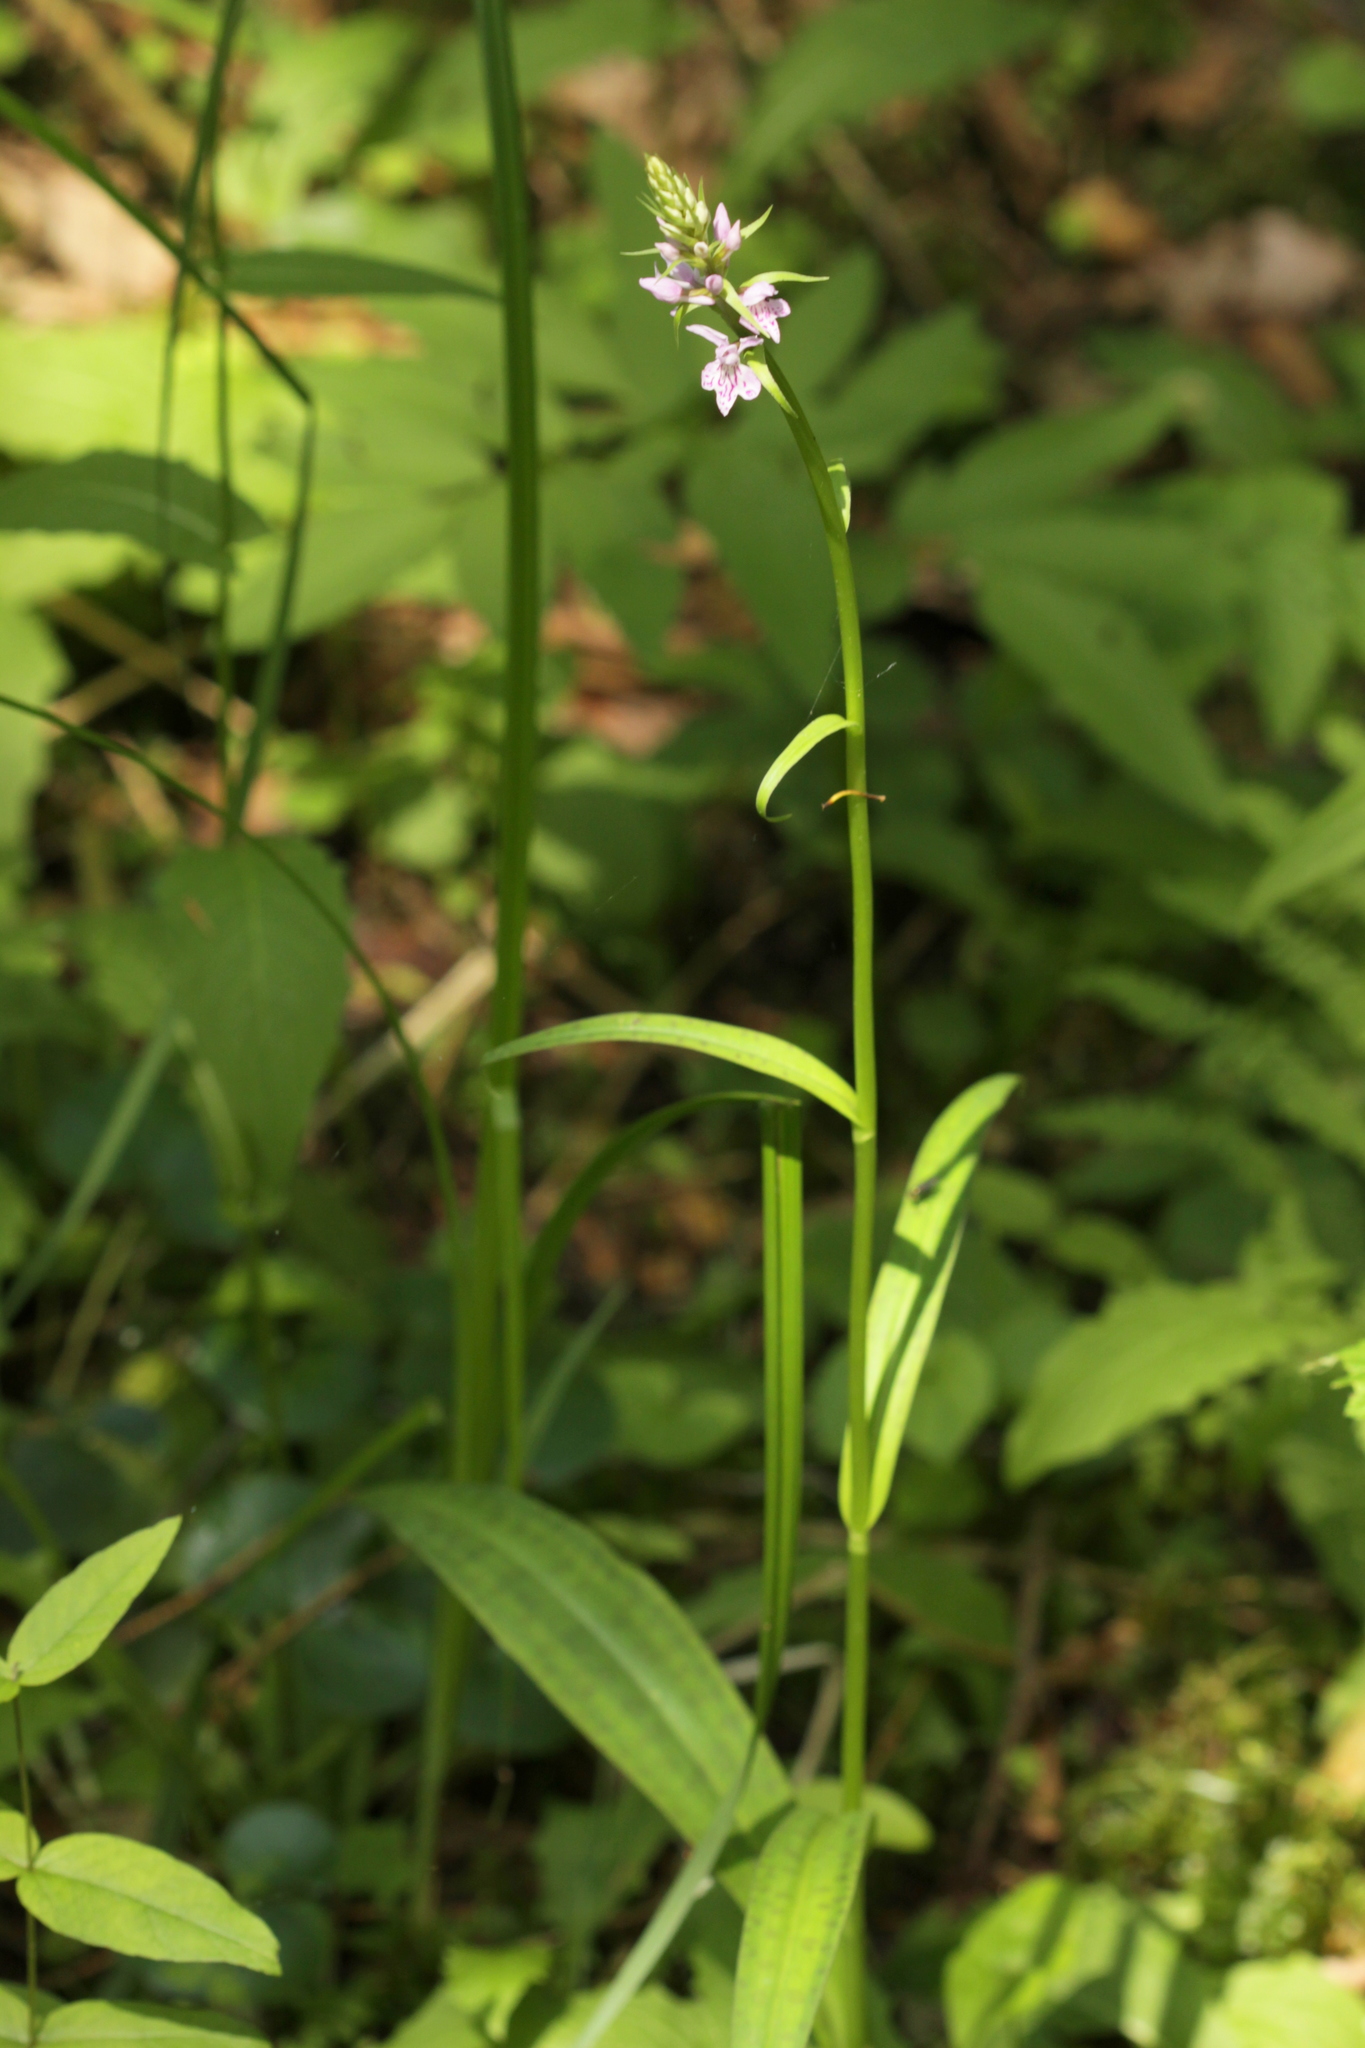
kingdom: Plantae
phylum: Tracheophyta
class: Liliopsida
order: Asparagales
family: Orchidaceae
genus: Dactylorhiza
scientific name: Dactylorhiza maculata
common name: Heath spotted-orchid
